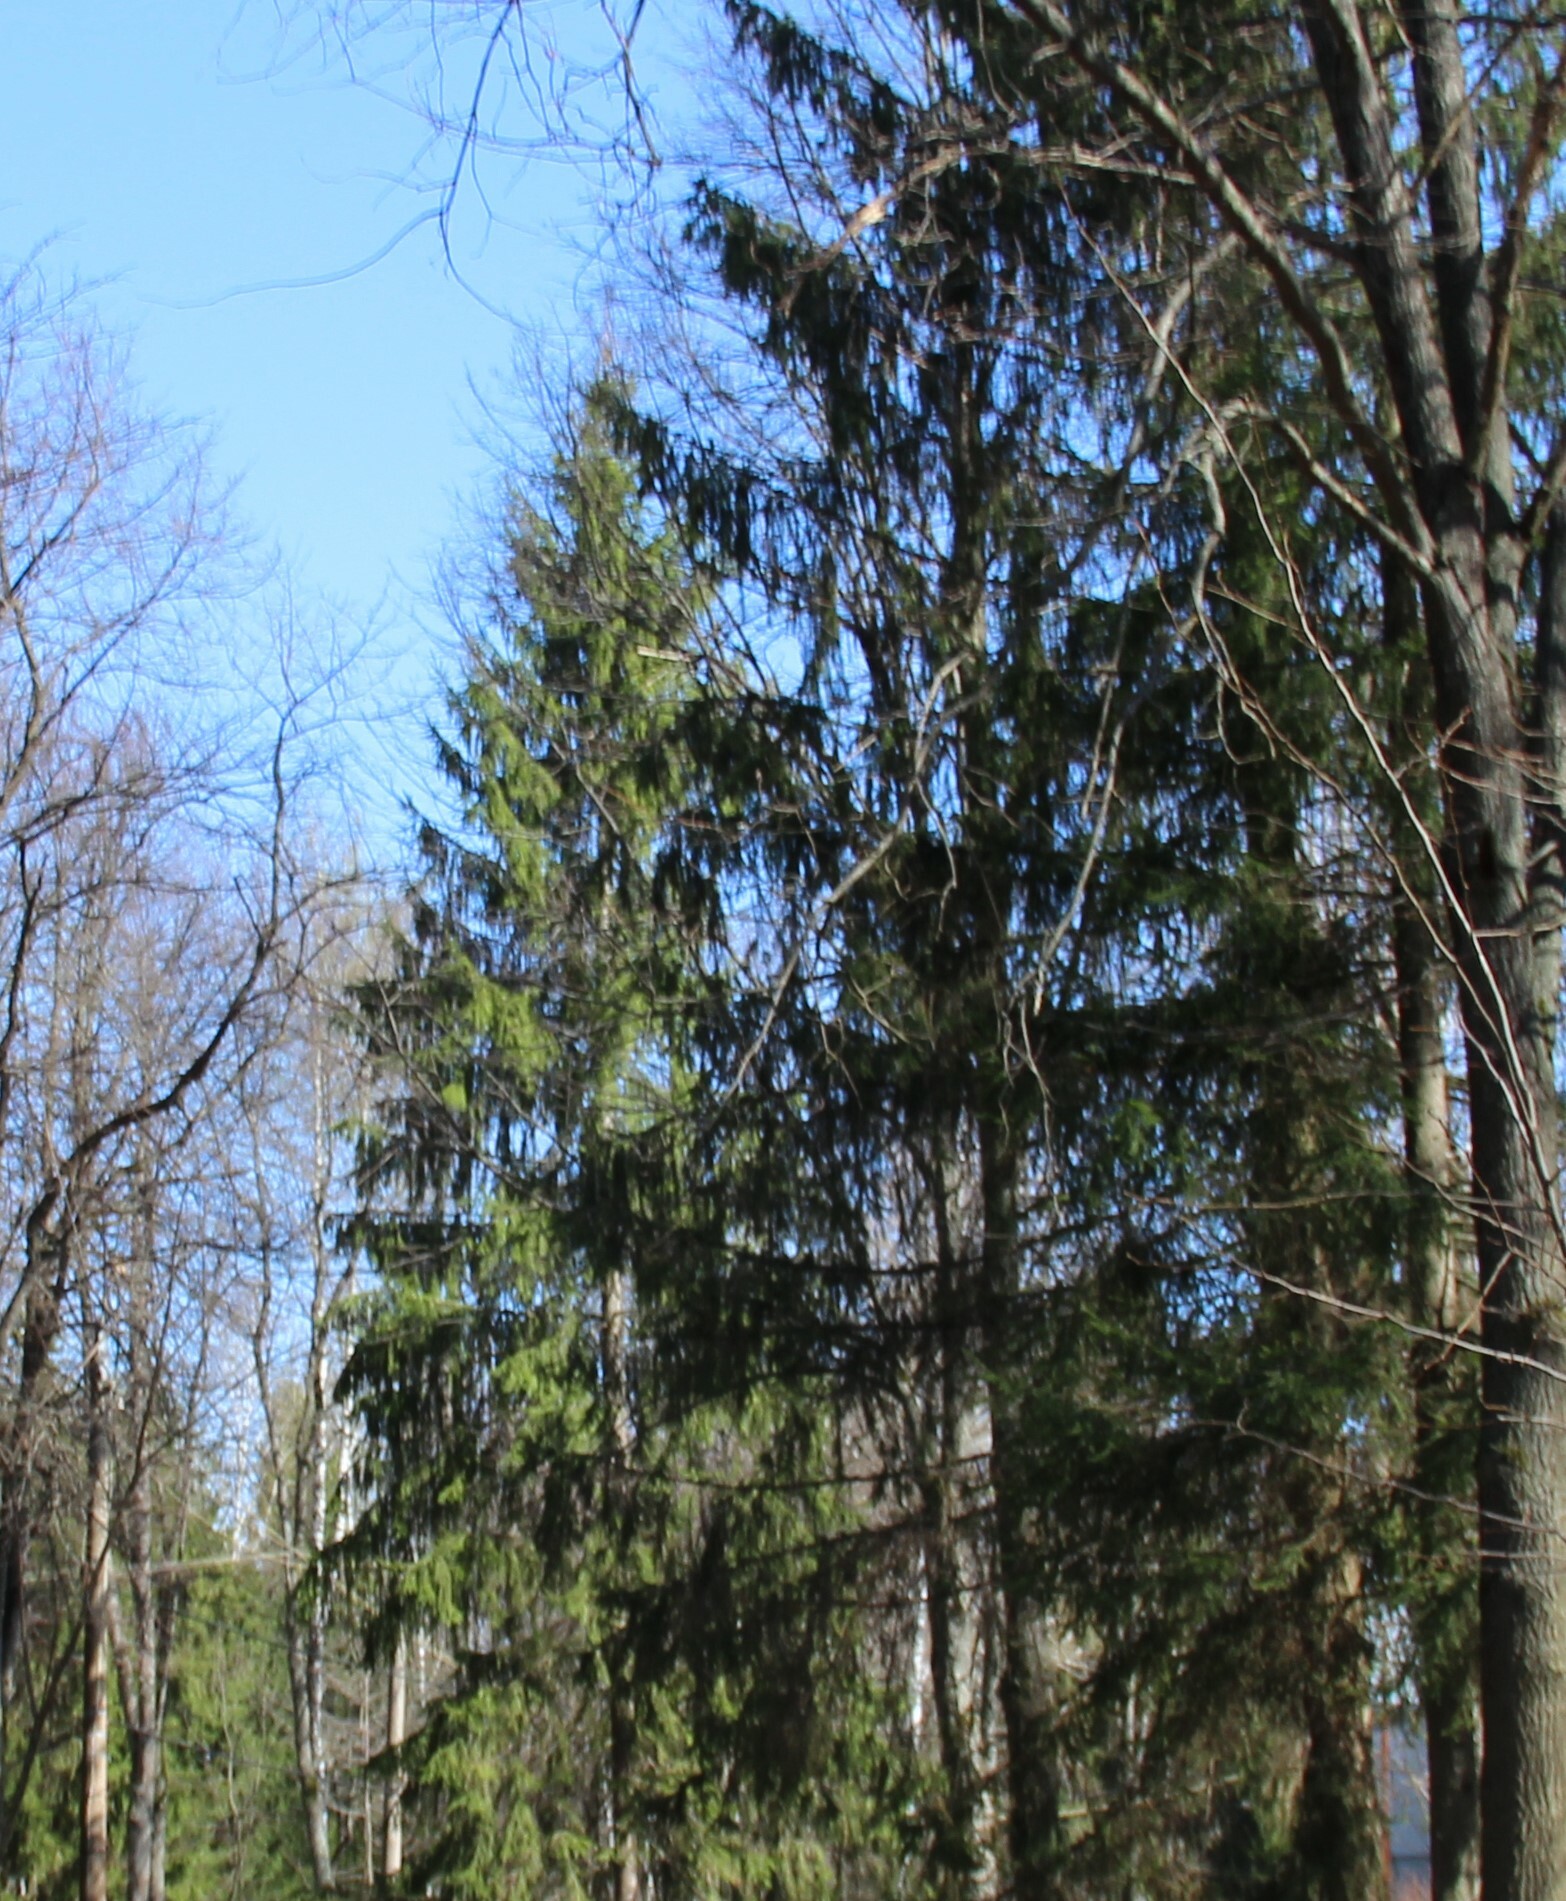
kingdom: Plantae
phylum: Tracheophyta
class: Pinopsida
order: Pinales
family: Pinaceae
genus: Picea
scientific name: Picea abies
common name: Norway spruce
